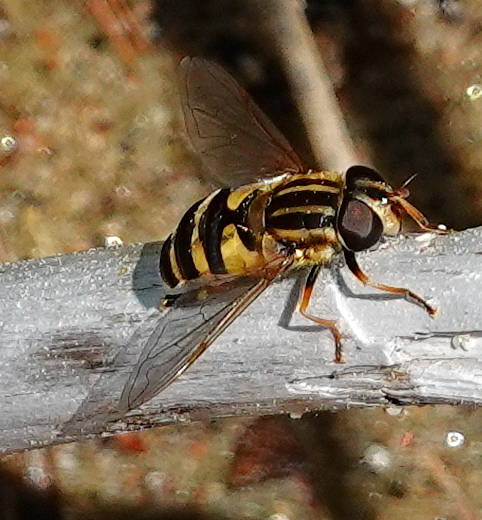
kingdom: Animalia
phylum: Arthropoda
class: Insecta
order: Diptera
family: Syrphidae
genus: Helophilus
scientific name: Helophilus fasciatus
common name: Narrow-headed marsh fly
